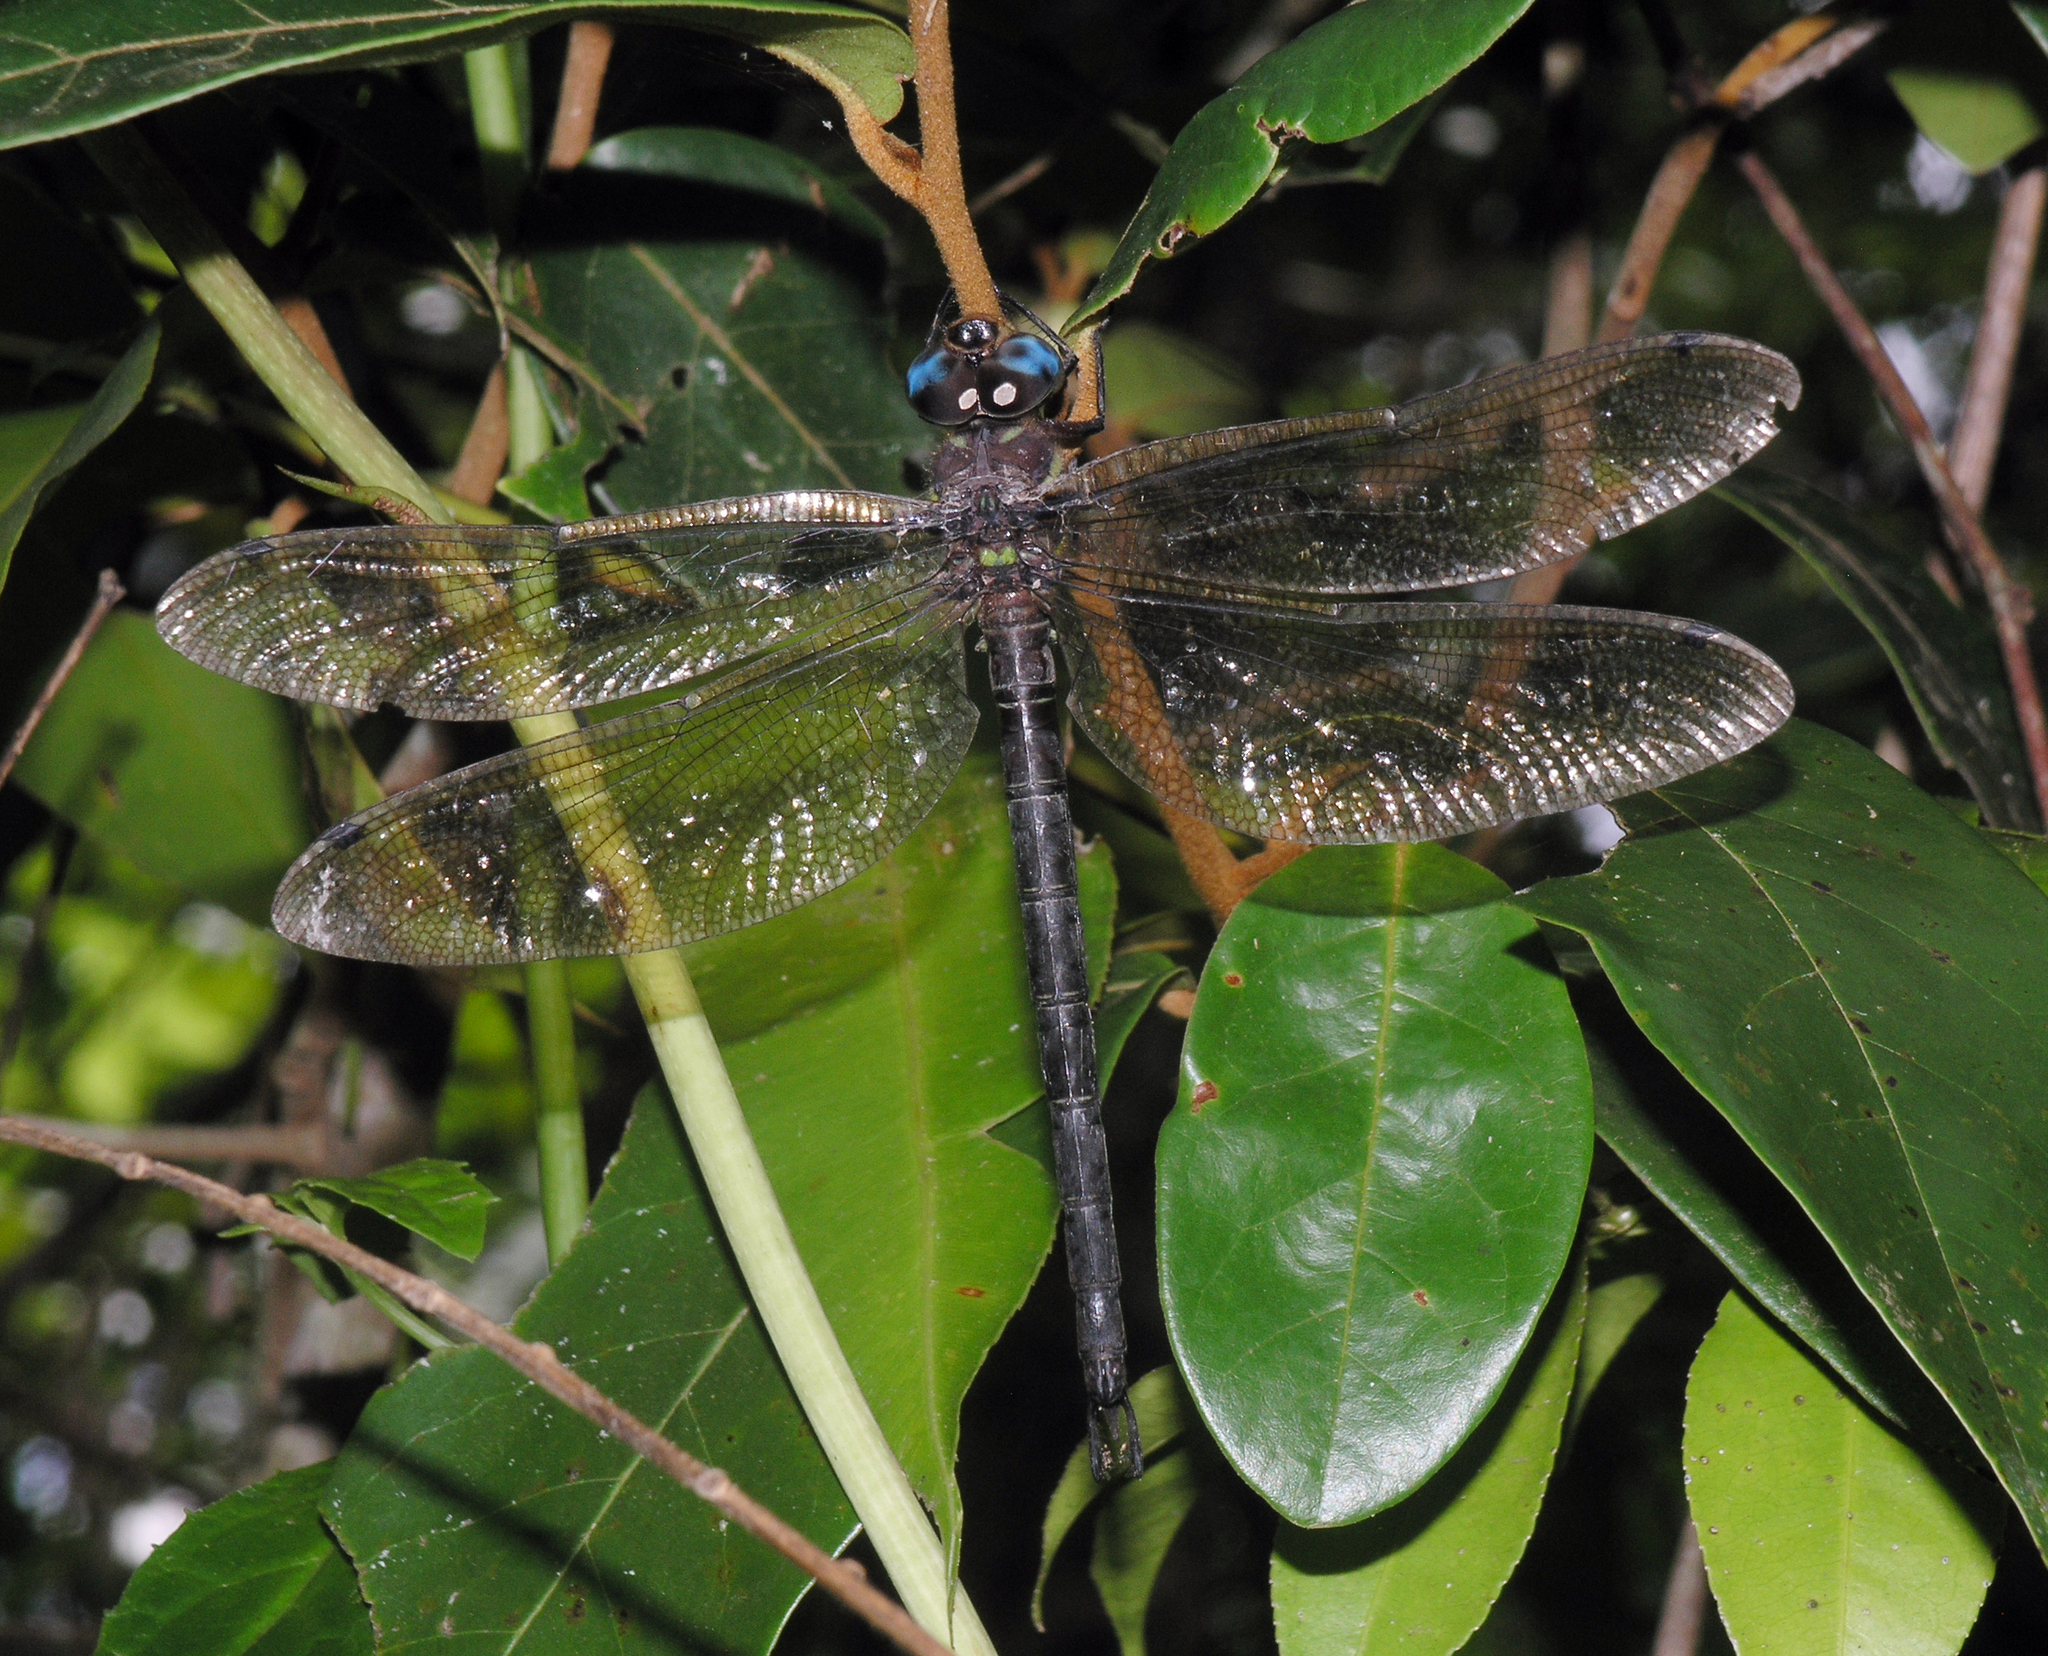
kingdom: Animalia
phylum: Arthropoda
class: Insecta
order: Odonata
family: Aeshnidae
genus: Tetracanthagyna
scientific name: Tetracanthagyna waterhousei
